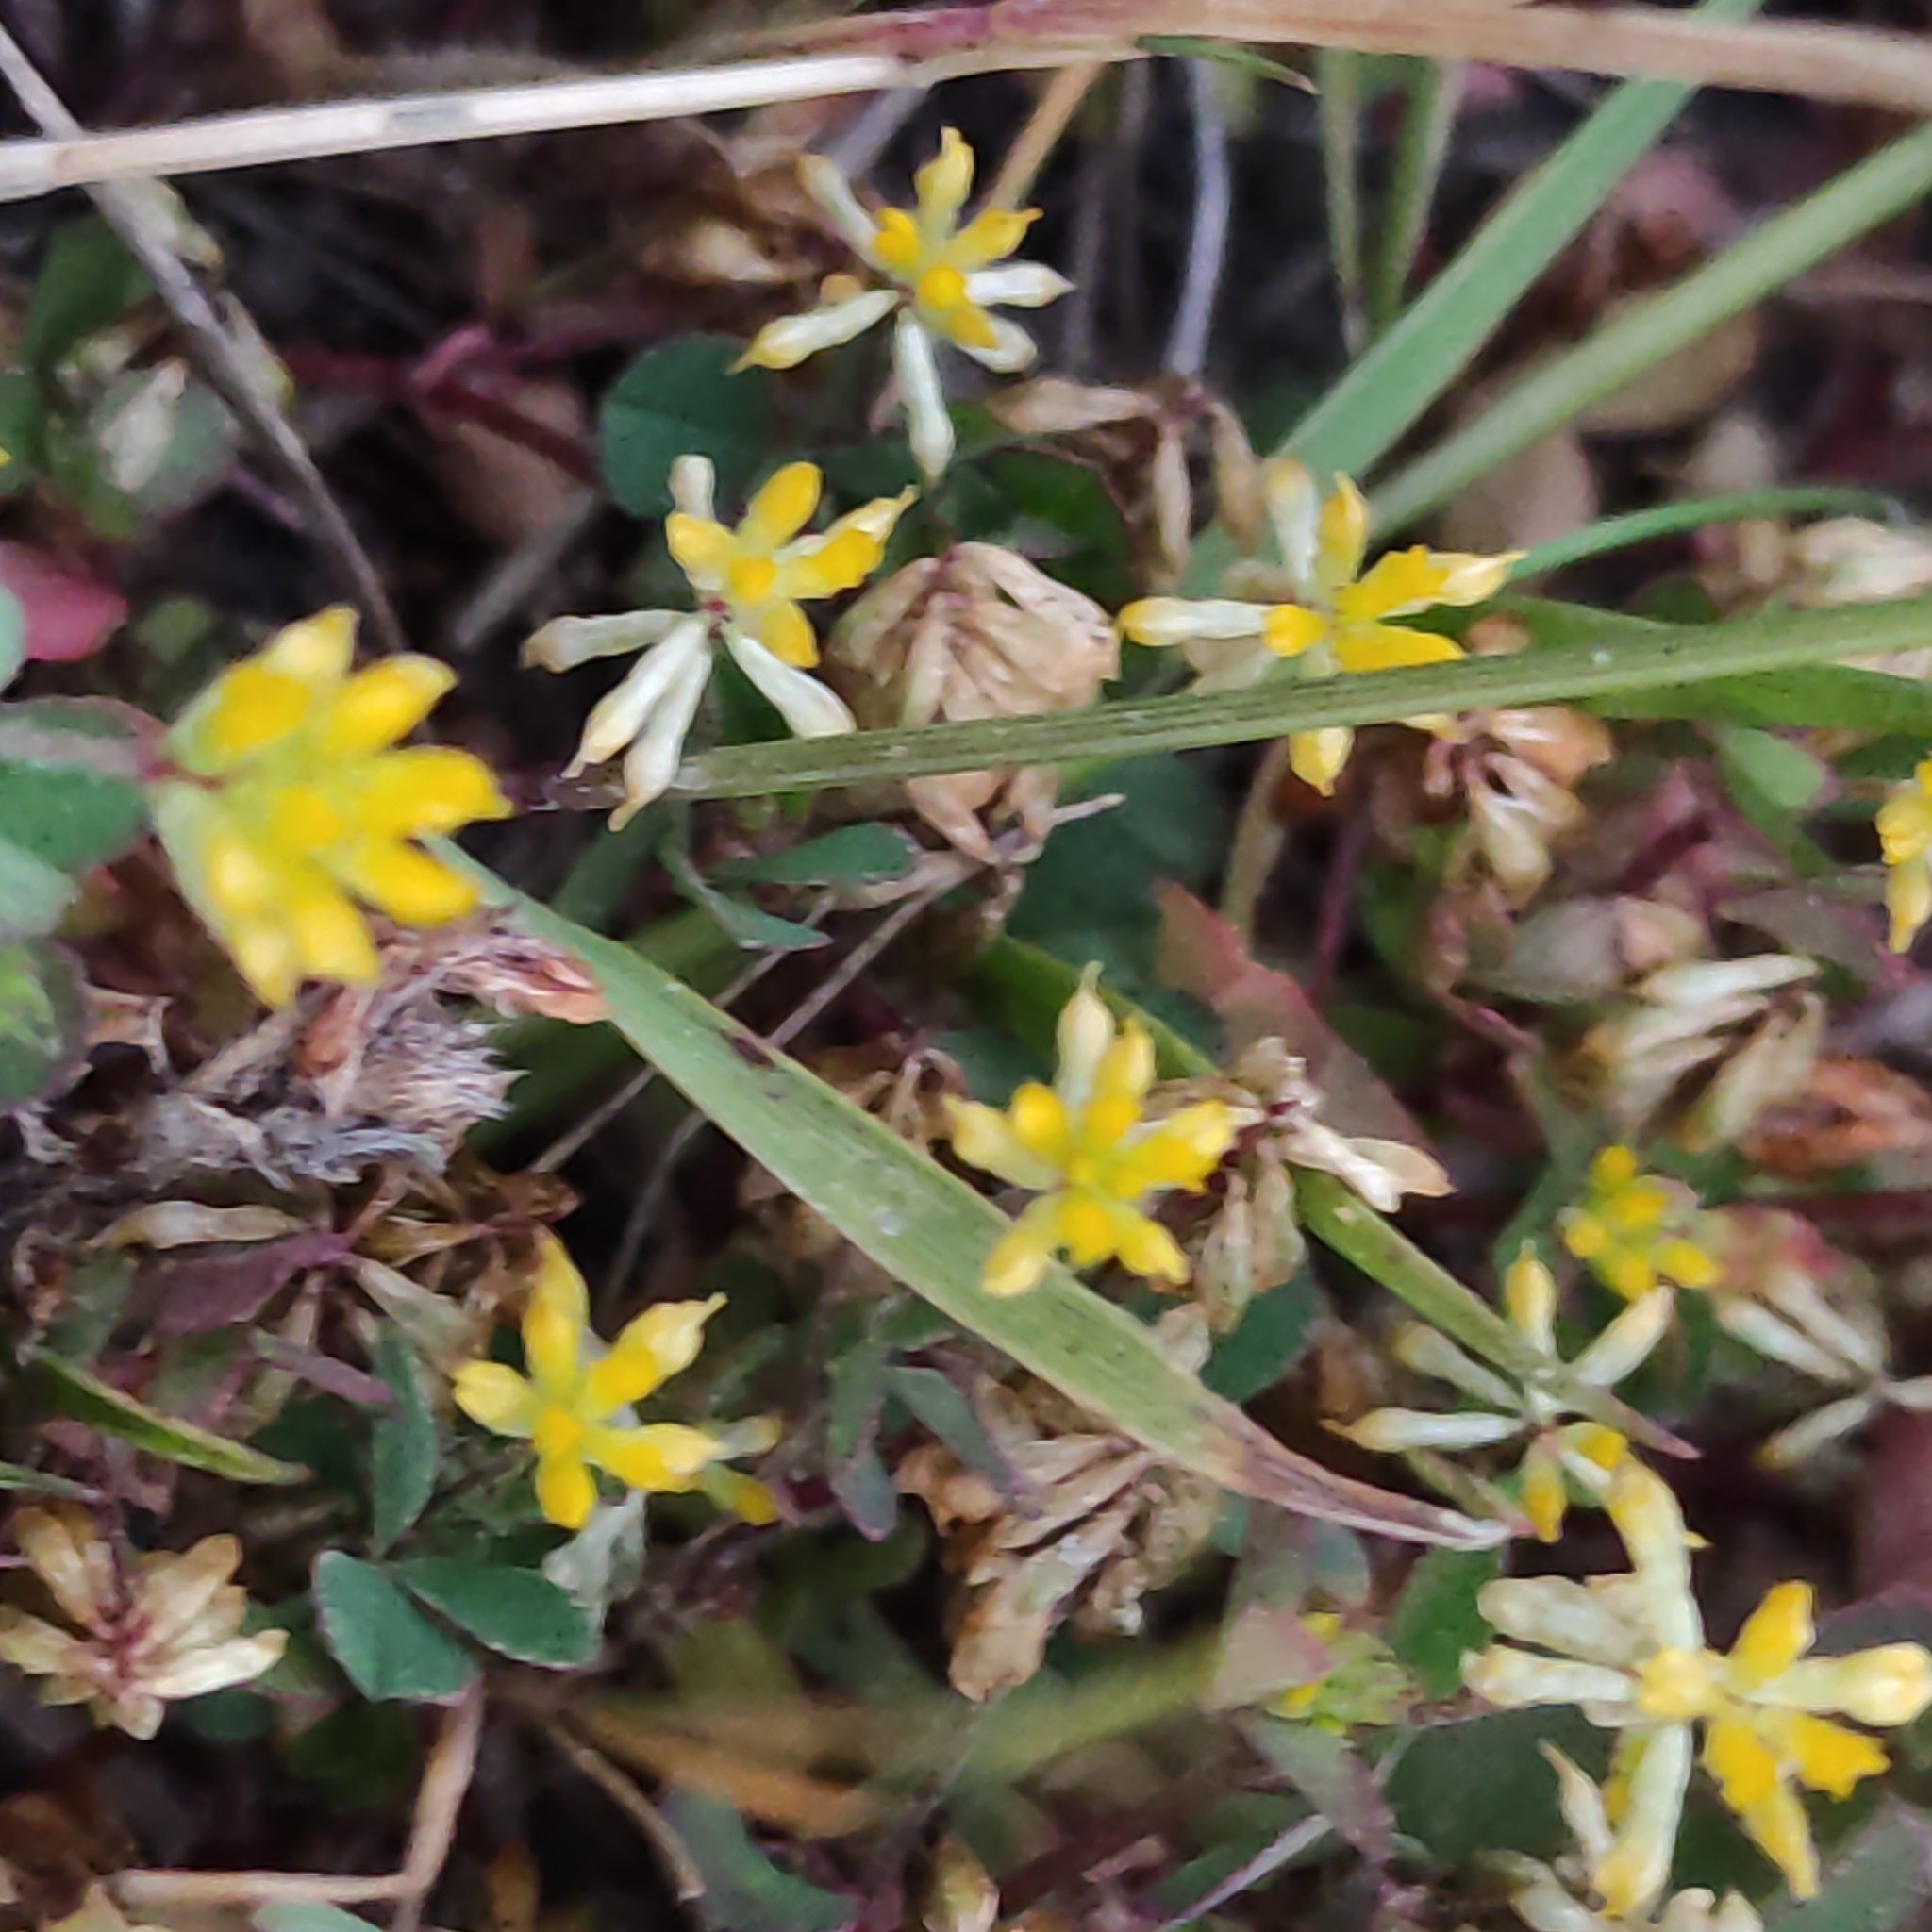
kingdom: Plantae
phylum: Tracheophyta
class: Magnoliopsida
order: Fabales
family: Fabaceae
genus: Trifolium
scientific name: Trifolium dubium
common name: Suckling clover
